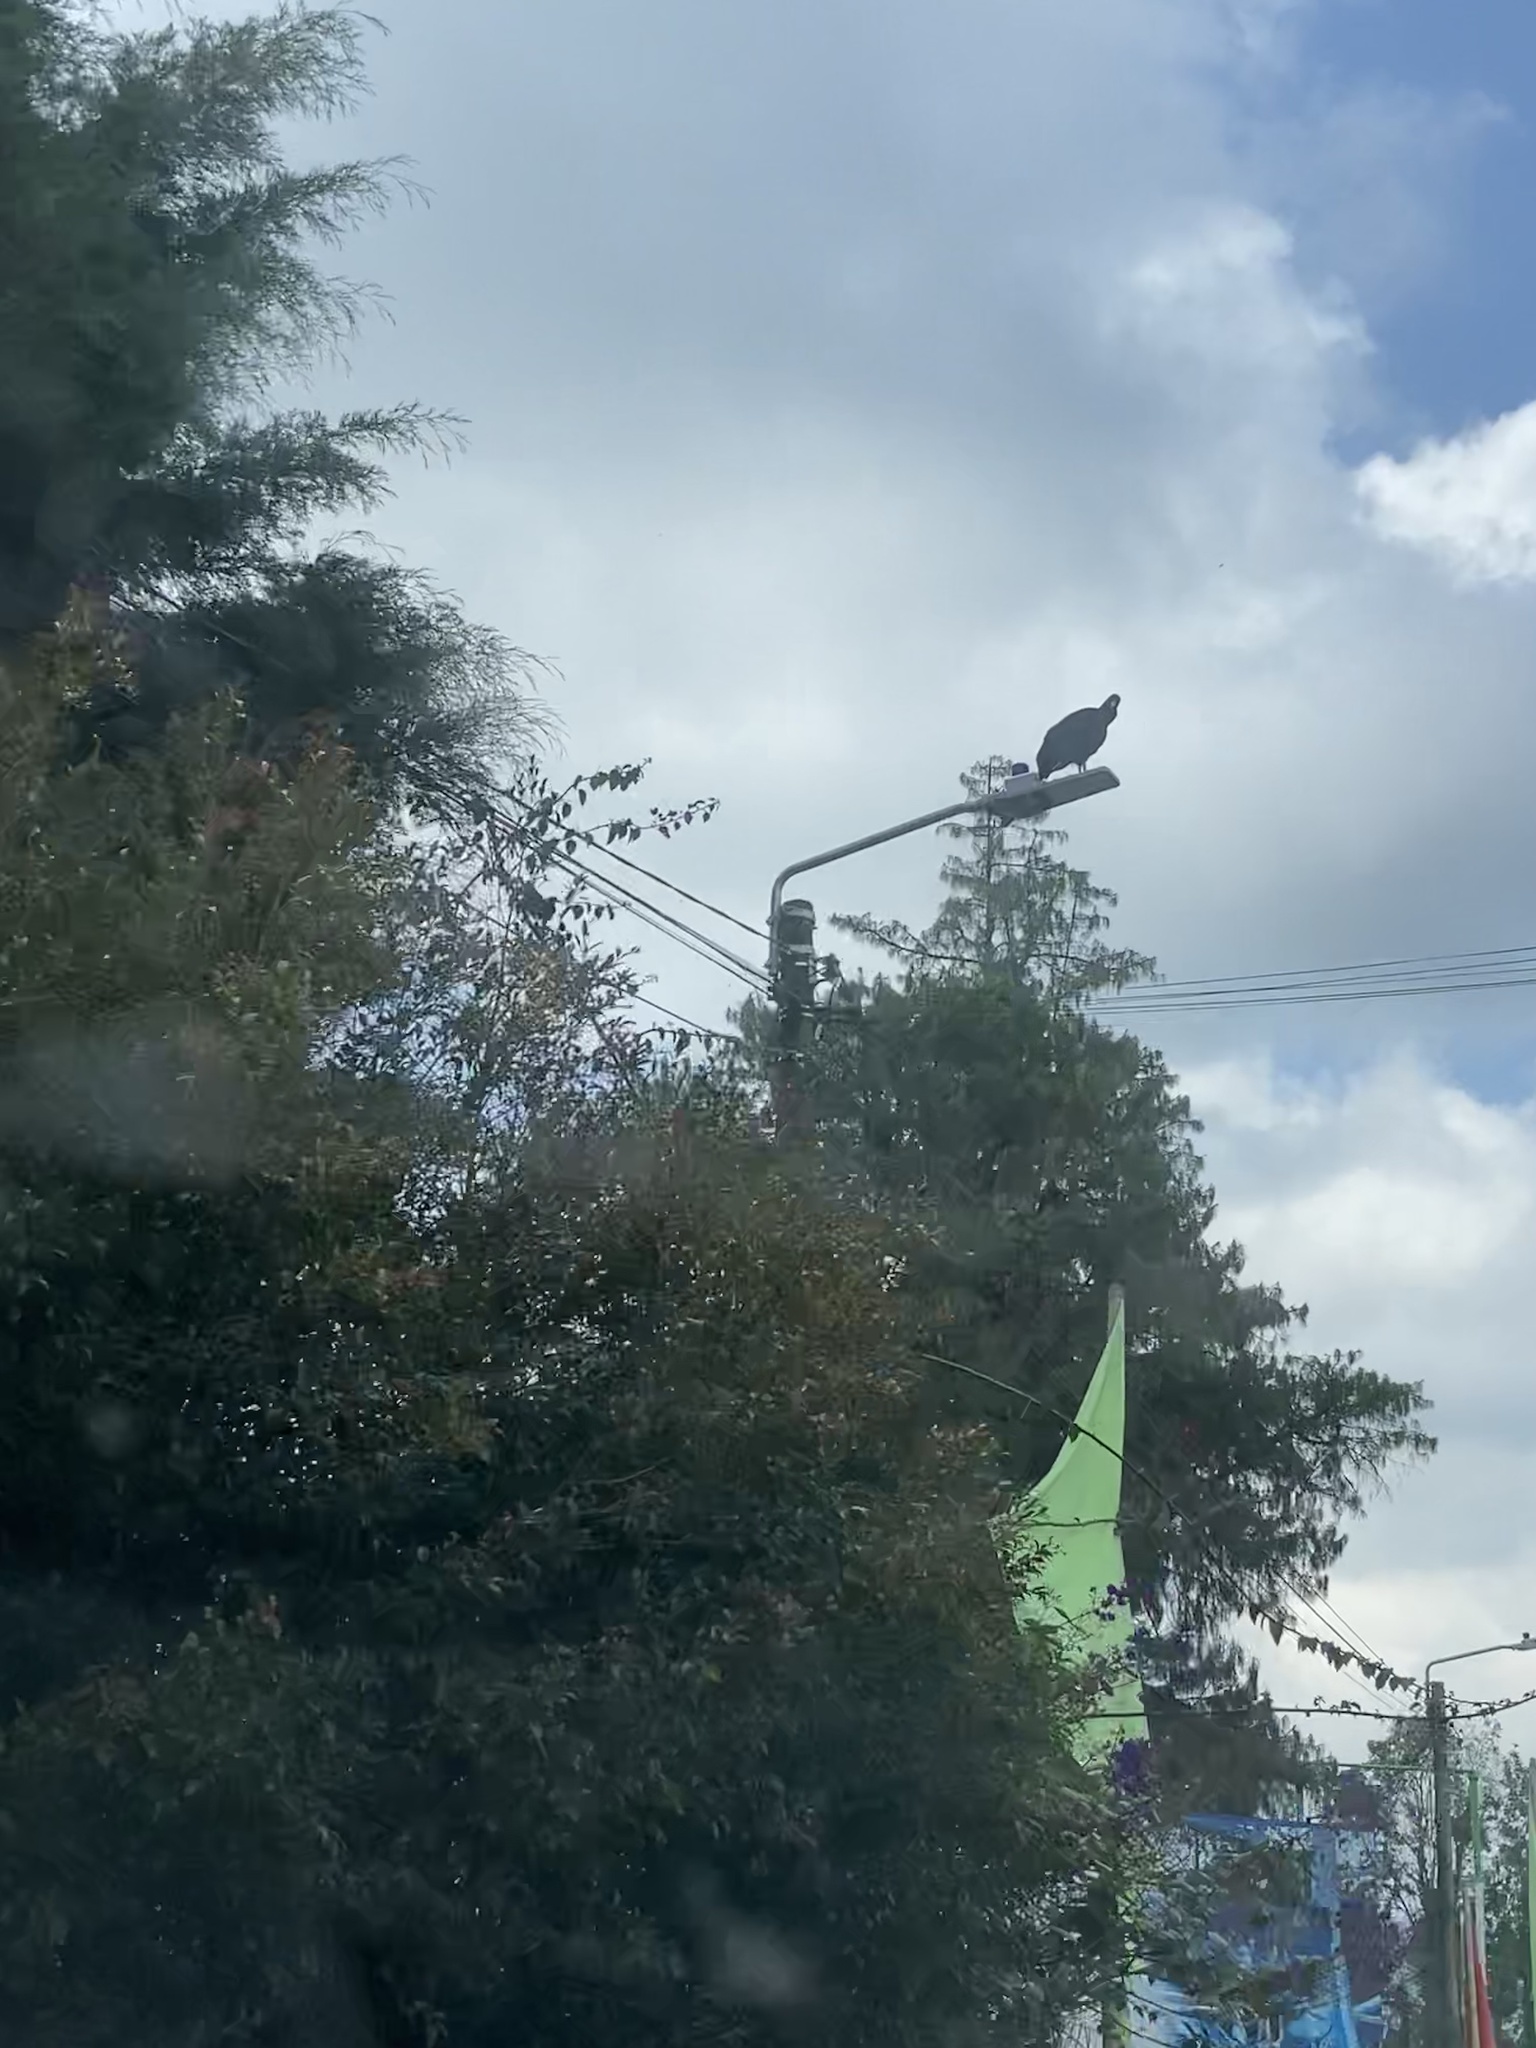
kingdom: Animalia
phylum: Chordata
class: Aves
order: Accipitriformes
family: Cathartidae
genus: Coragyps
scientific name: Coragyps atratus
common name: Black vulture
